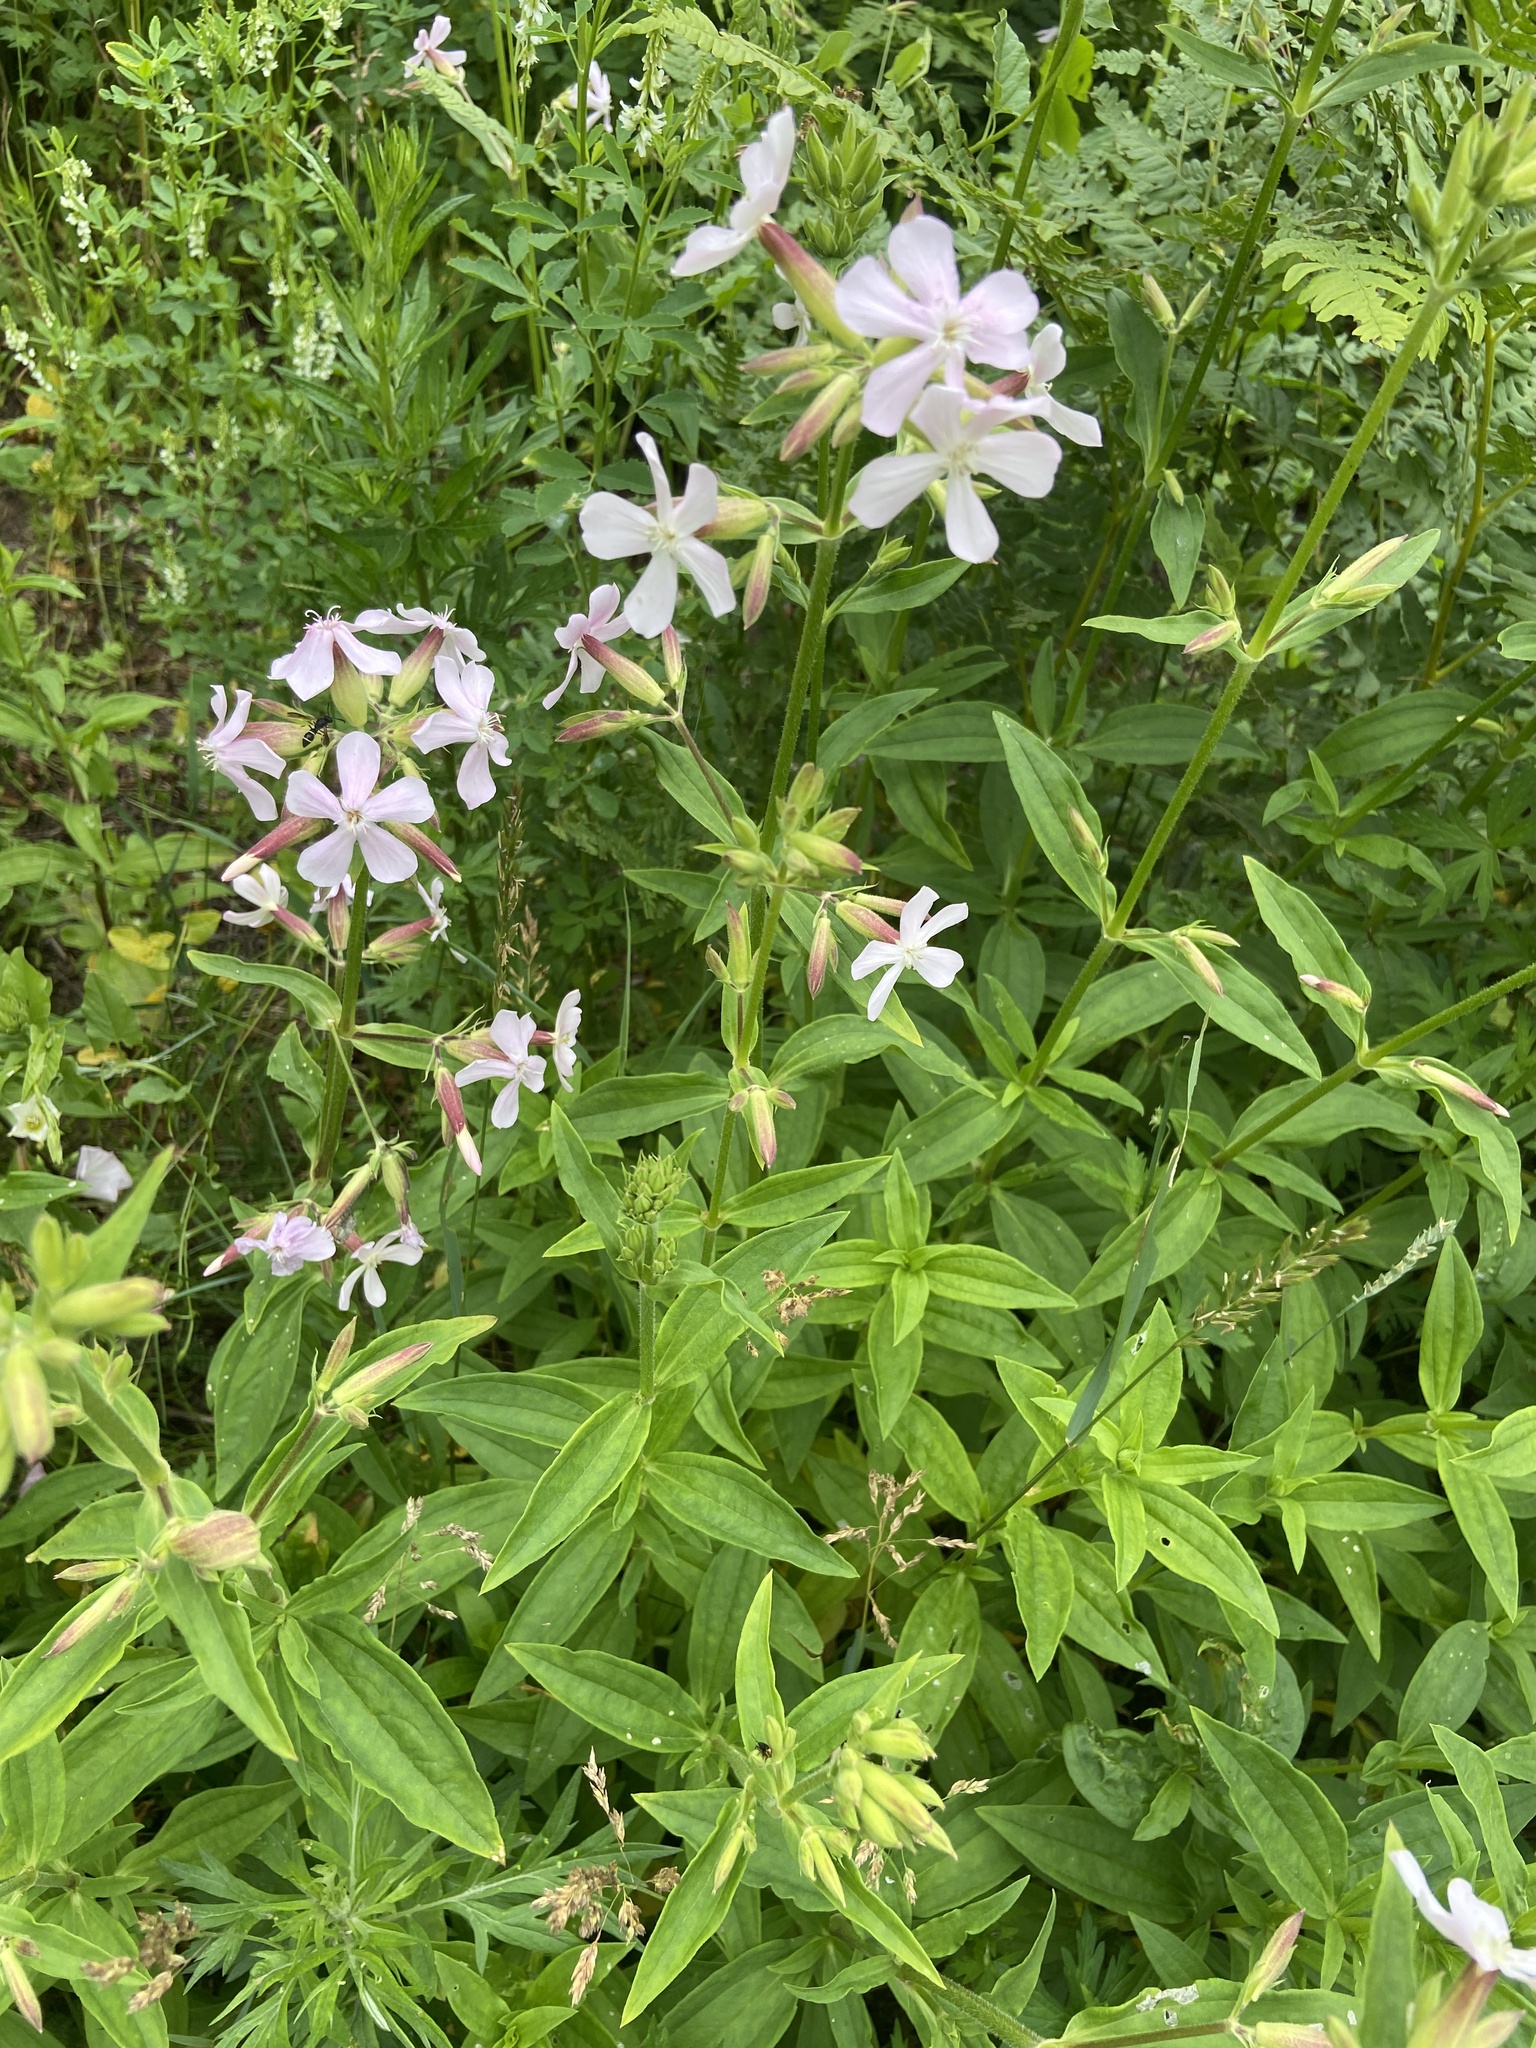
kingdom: Plantae
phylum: Tracheophyta
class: Magnoliopsida
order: Caryophyllales
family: Caryophyllaceae
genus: Saponaria
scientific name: Saponaria officinalis
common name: Soapwort
